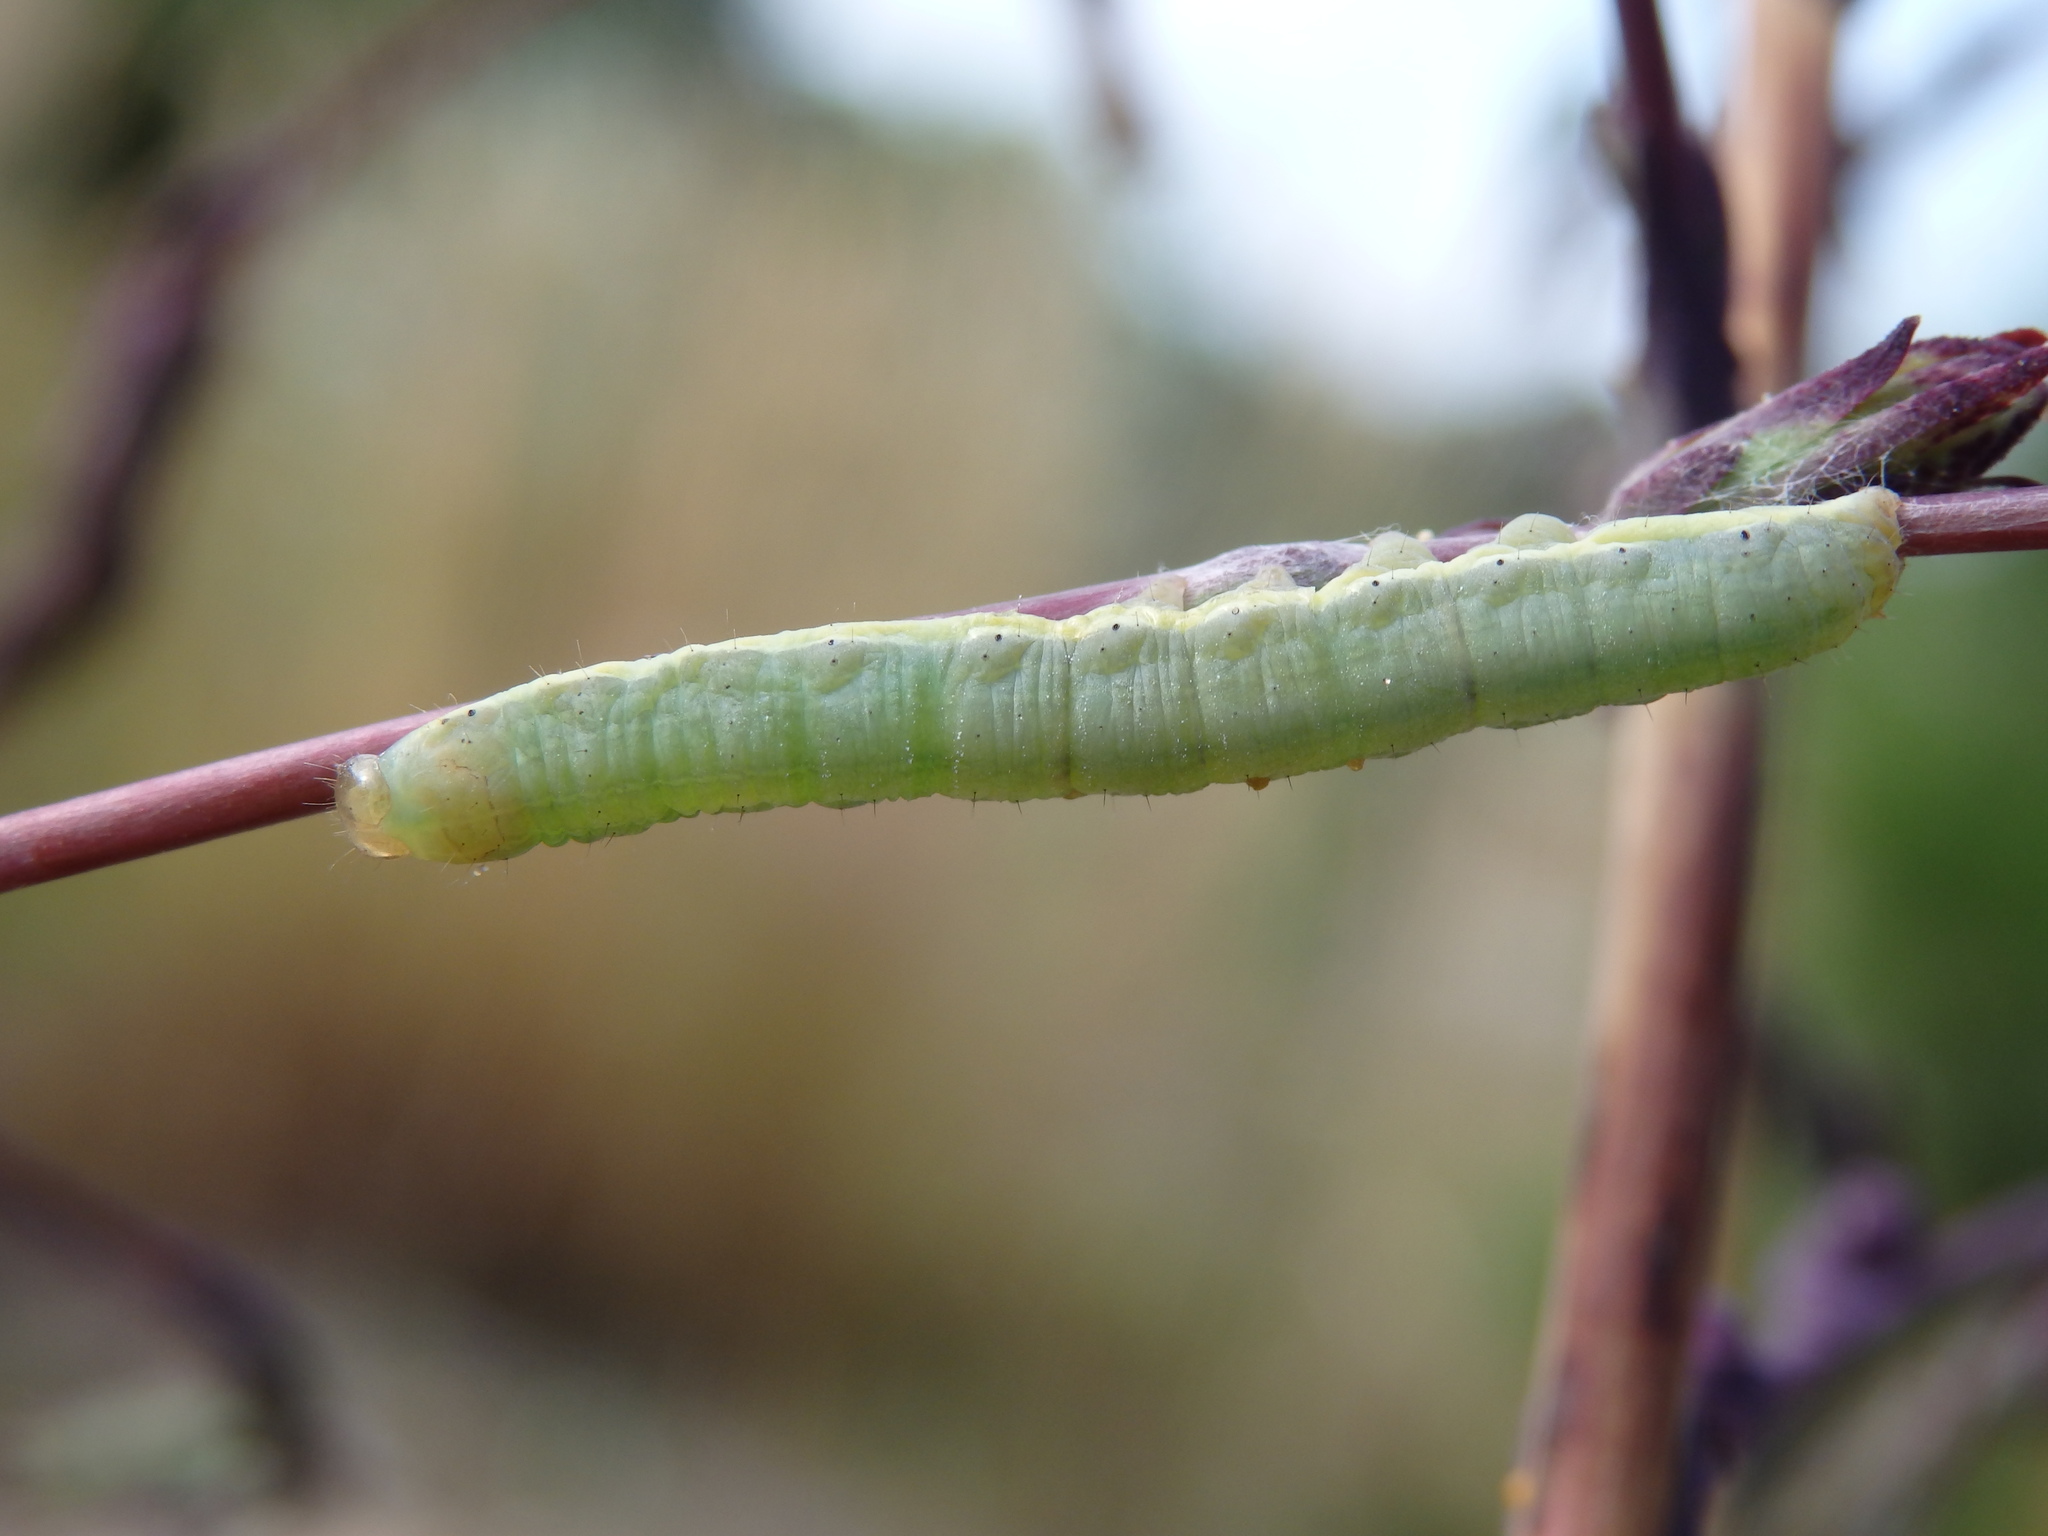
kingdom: Animalia
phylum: Arthropoda
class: Insecta
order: Lepidoptera
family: Noctuidae
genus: Hecatera
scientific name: Hecatera dysodea
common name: Small ranunculus
